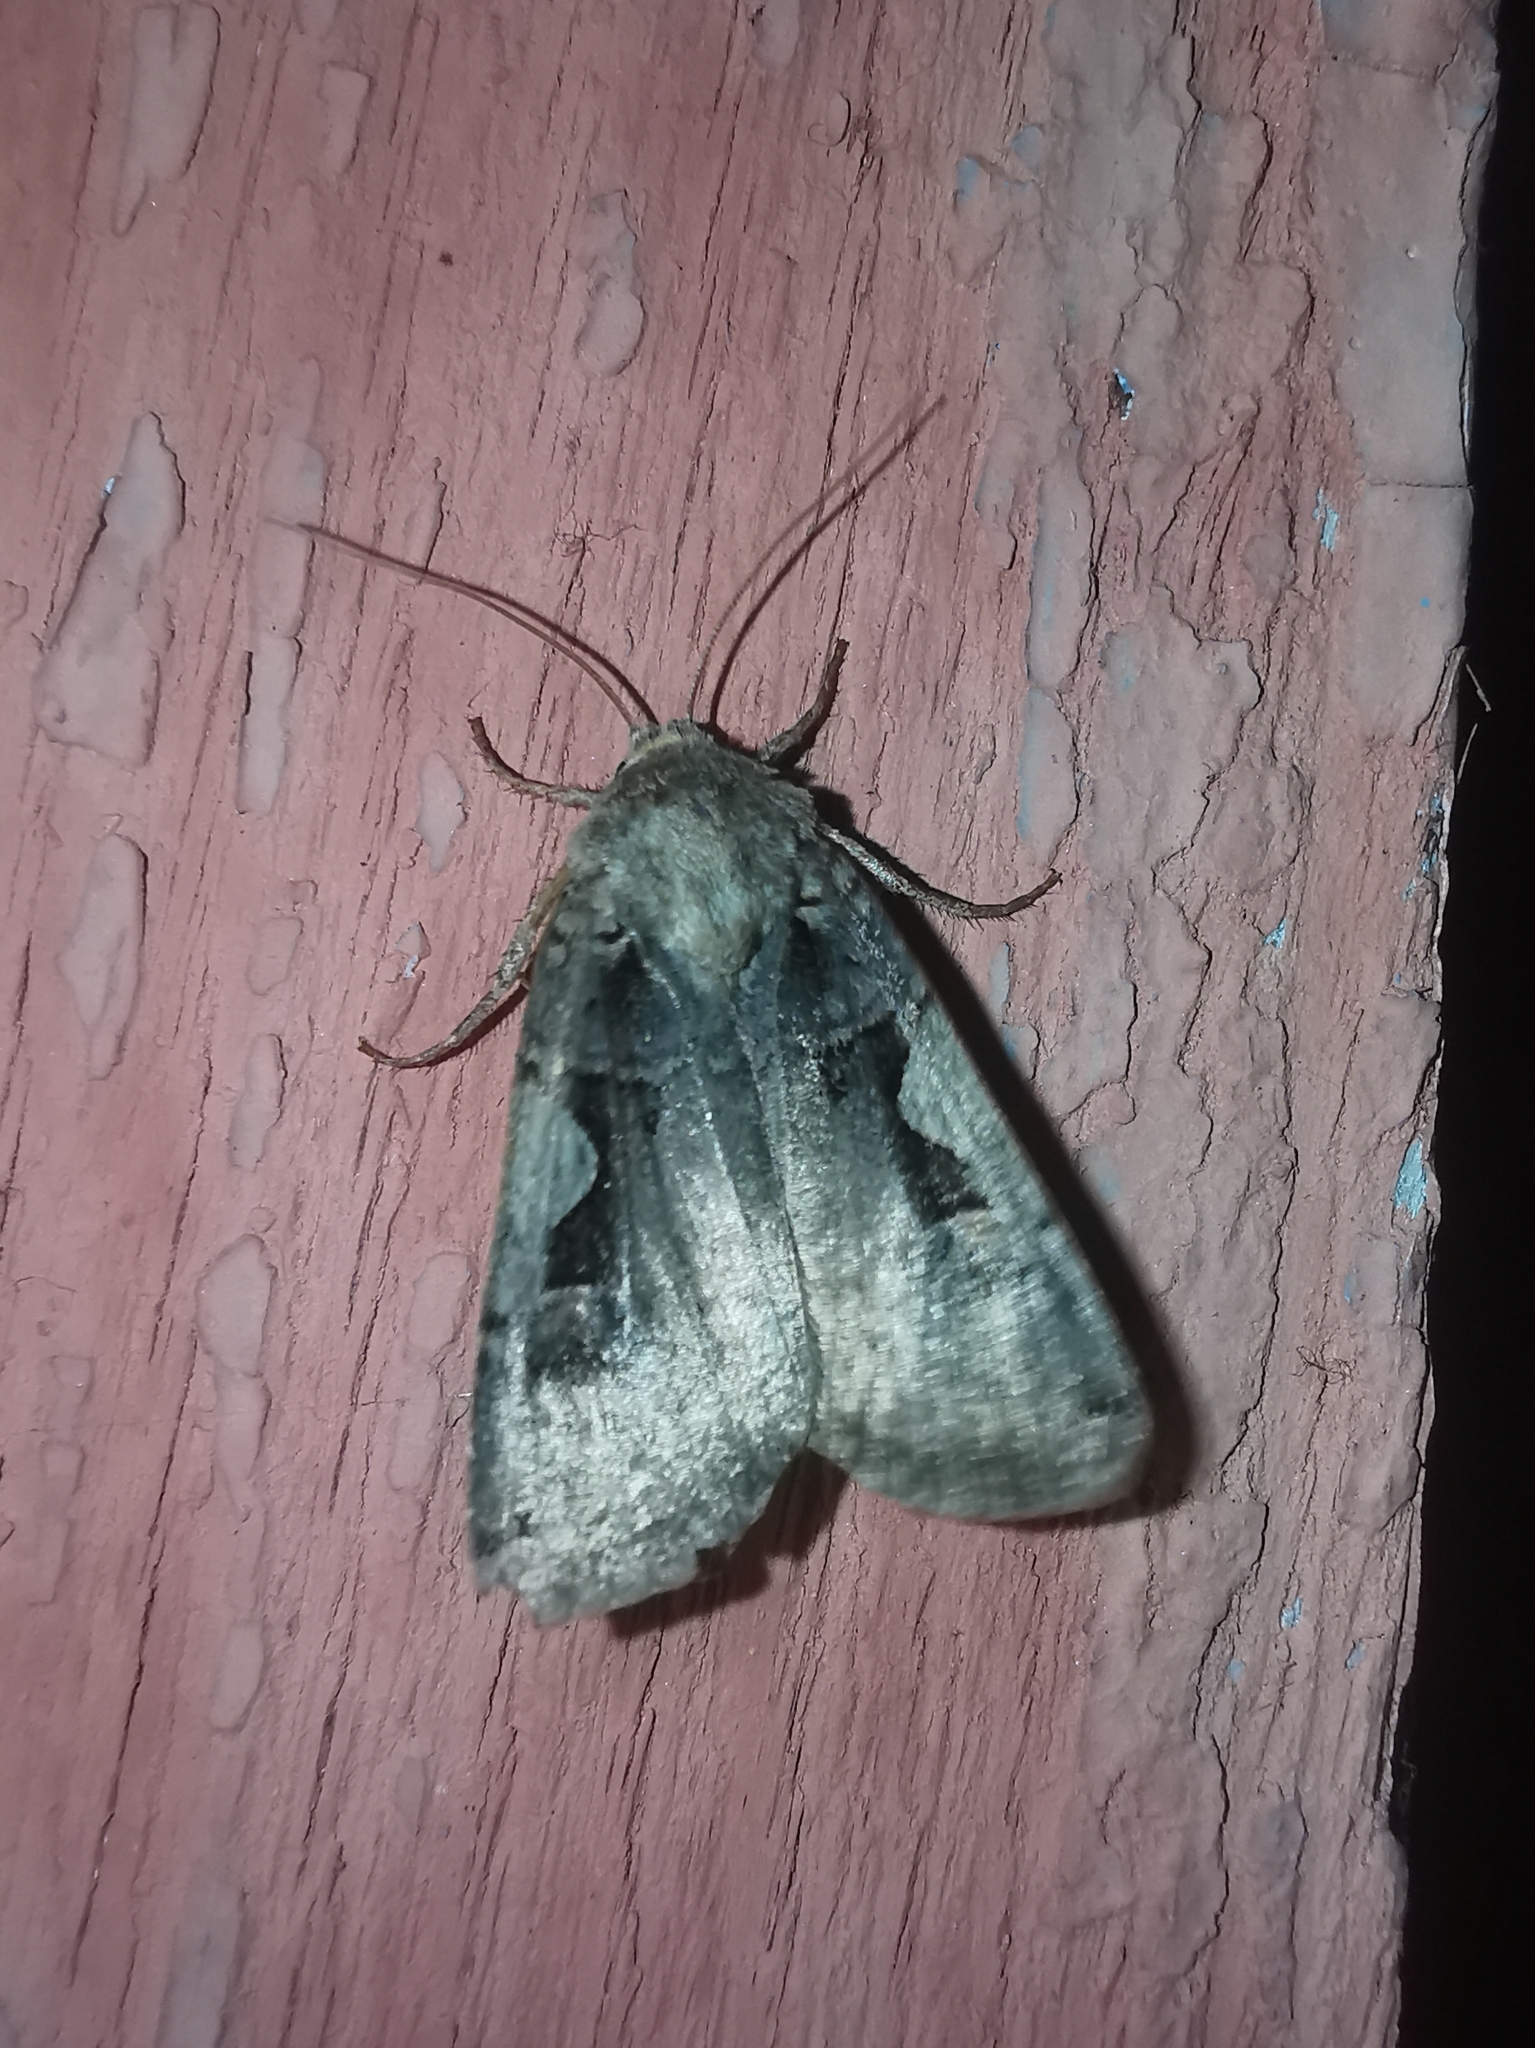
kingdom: Animalia
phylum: Arthropoda
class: Insecta
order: Lepidoptera
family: Noctuidae
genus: Xestia
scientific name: Xestia c-nigrum
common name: Setaceous hebrew character
